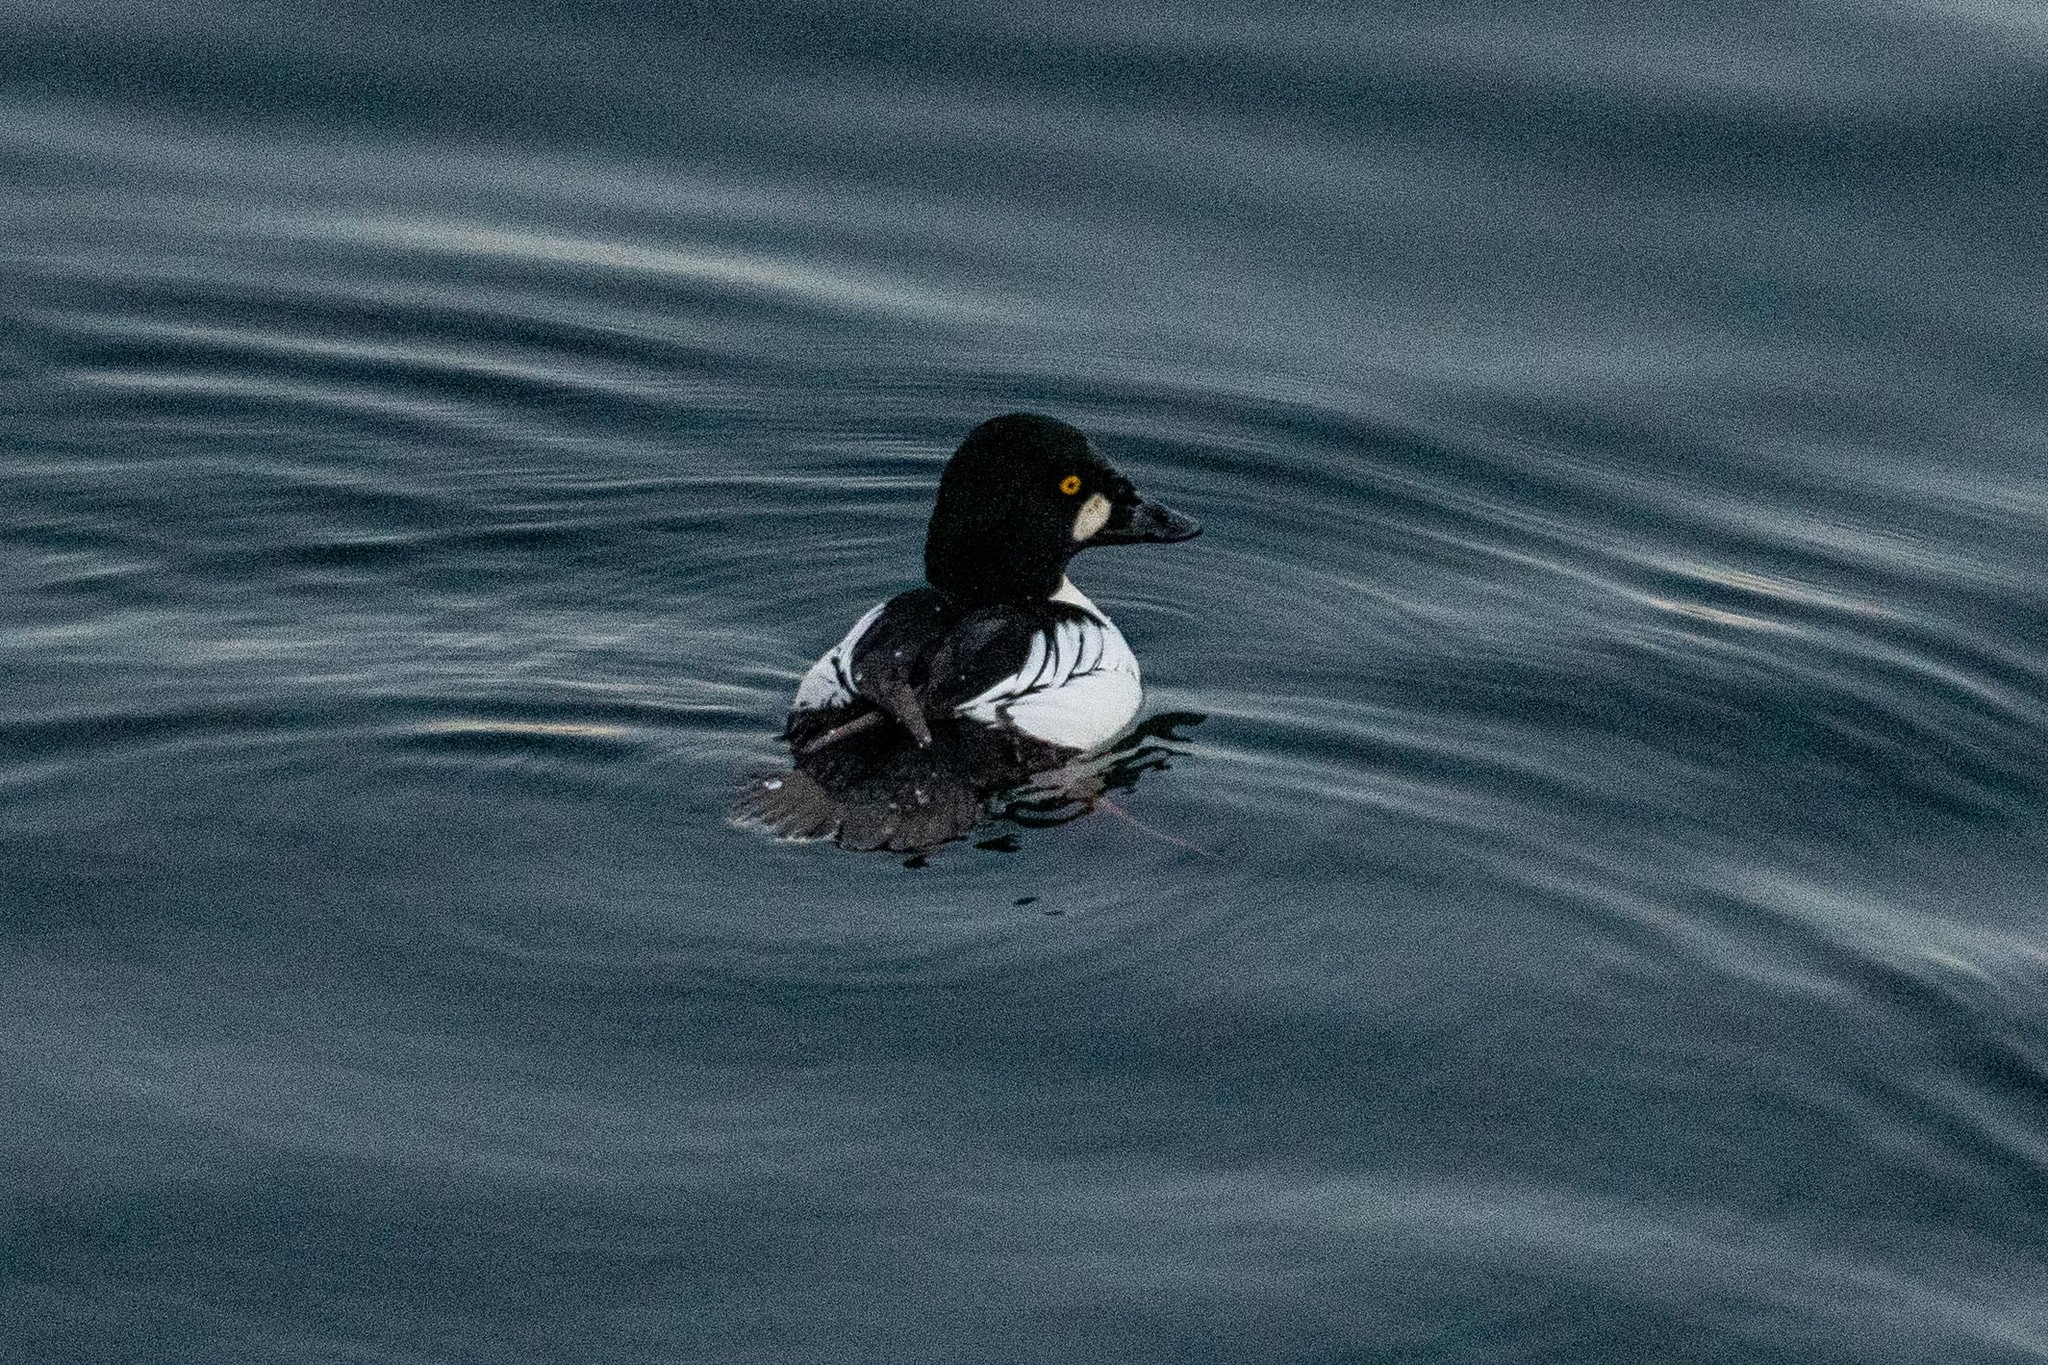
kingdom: Animalia
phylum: Chordata
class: Aves
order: Anseriformes
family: Anatidae
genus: Bucephala
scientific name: Bucephala clangula
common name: Common goldeneye
